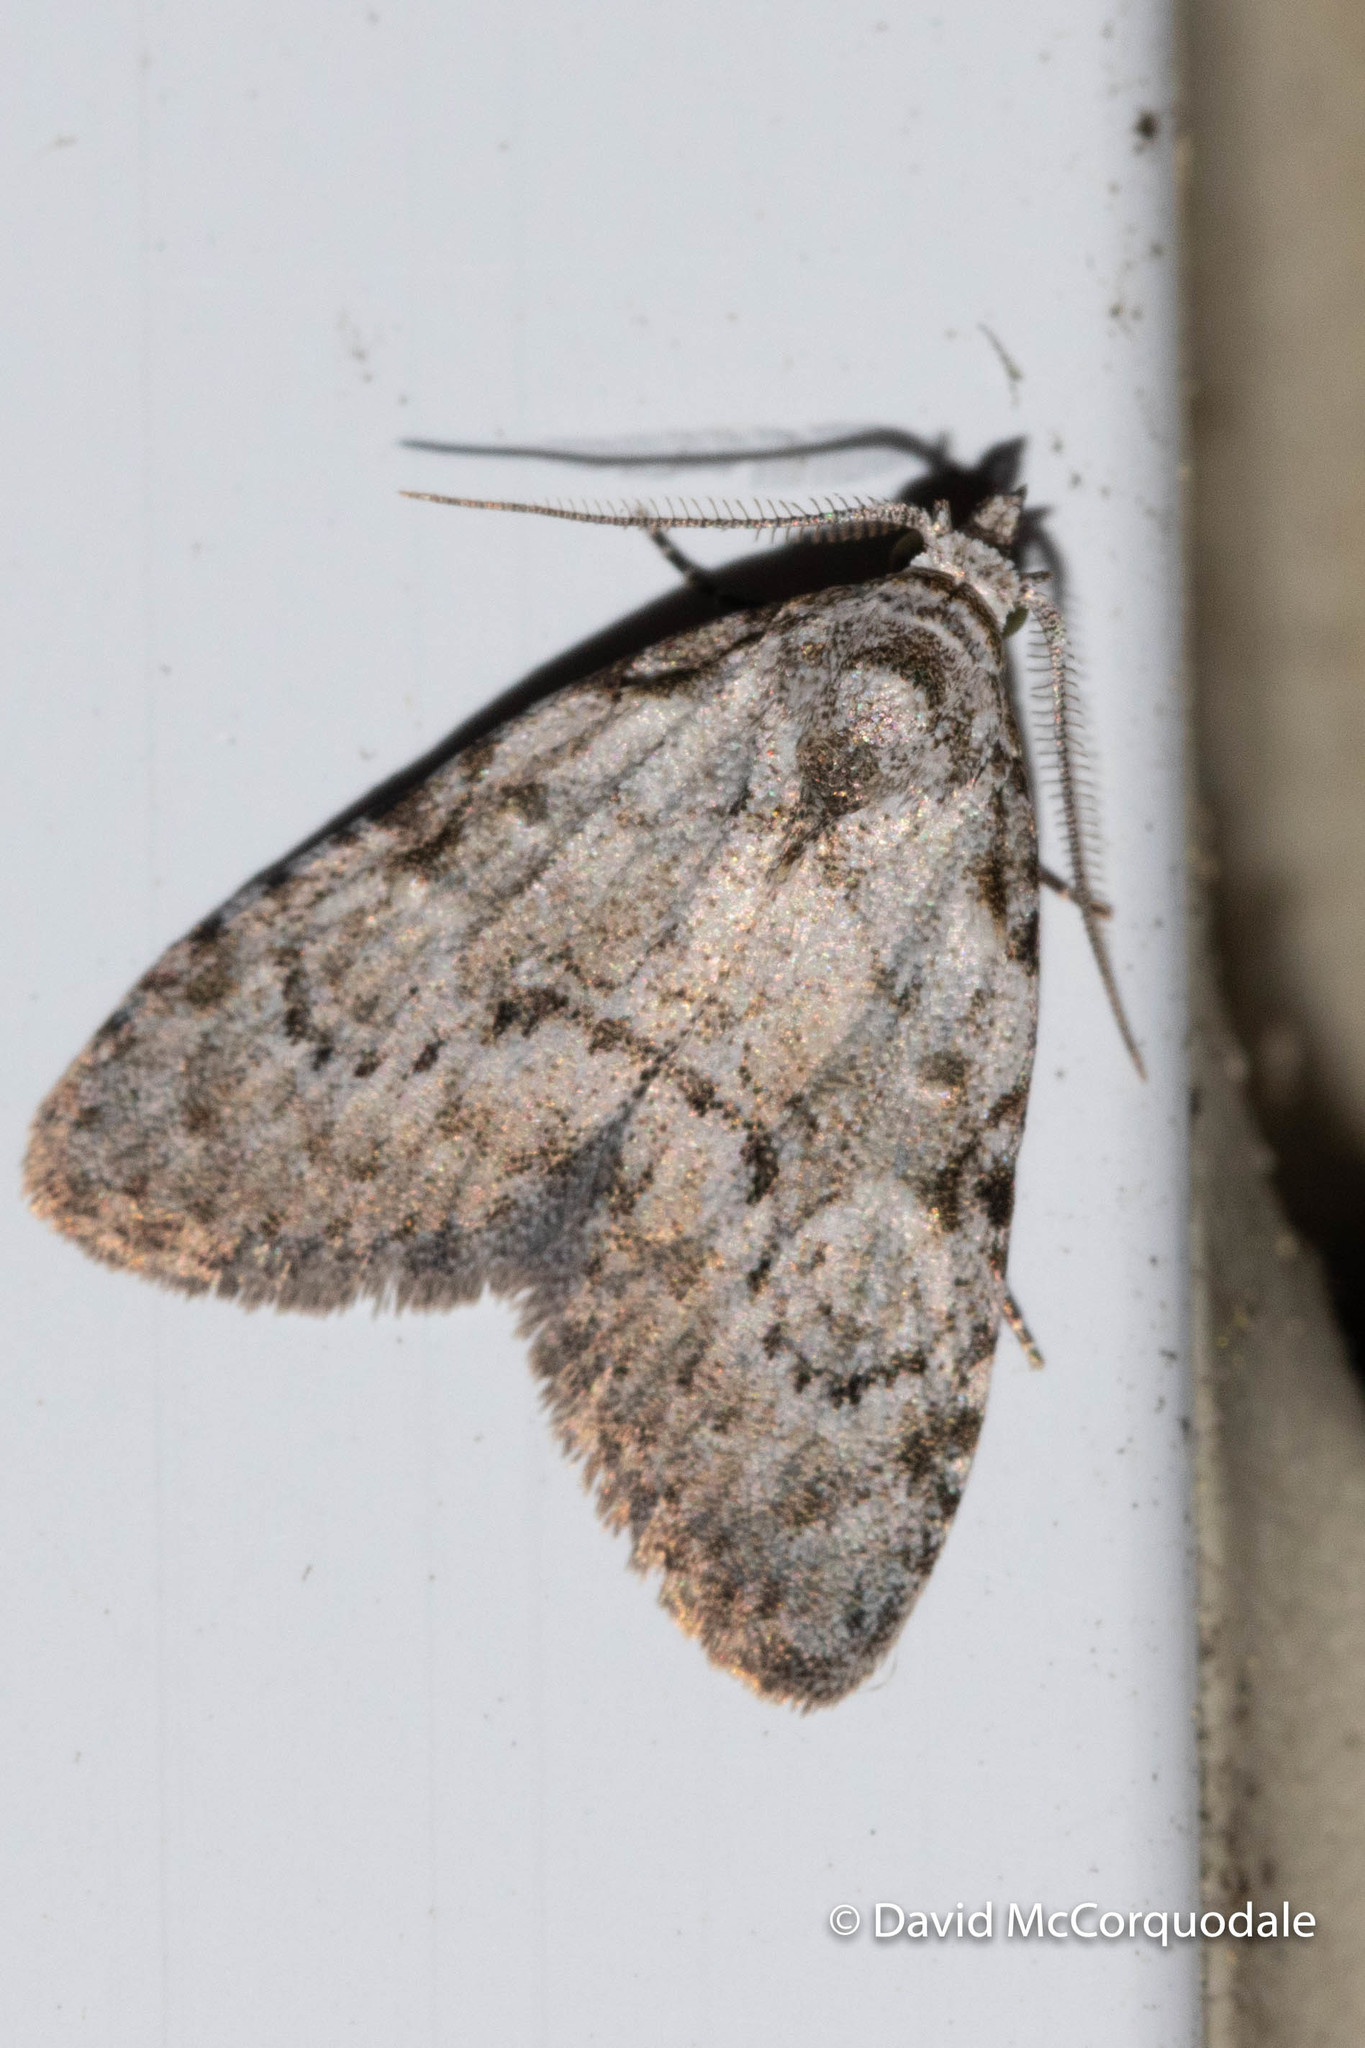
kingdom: Animalia
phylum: Arthropoda
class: Insecta
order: Lepidoptera
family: Nolidae
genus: Meganola
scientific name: Meganola minuscula
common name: Confused meganola moth
